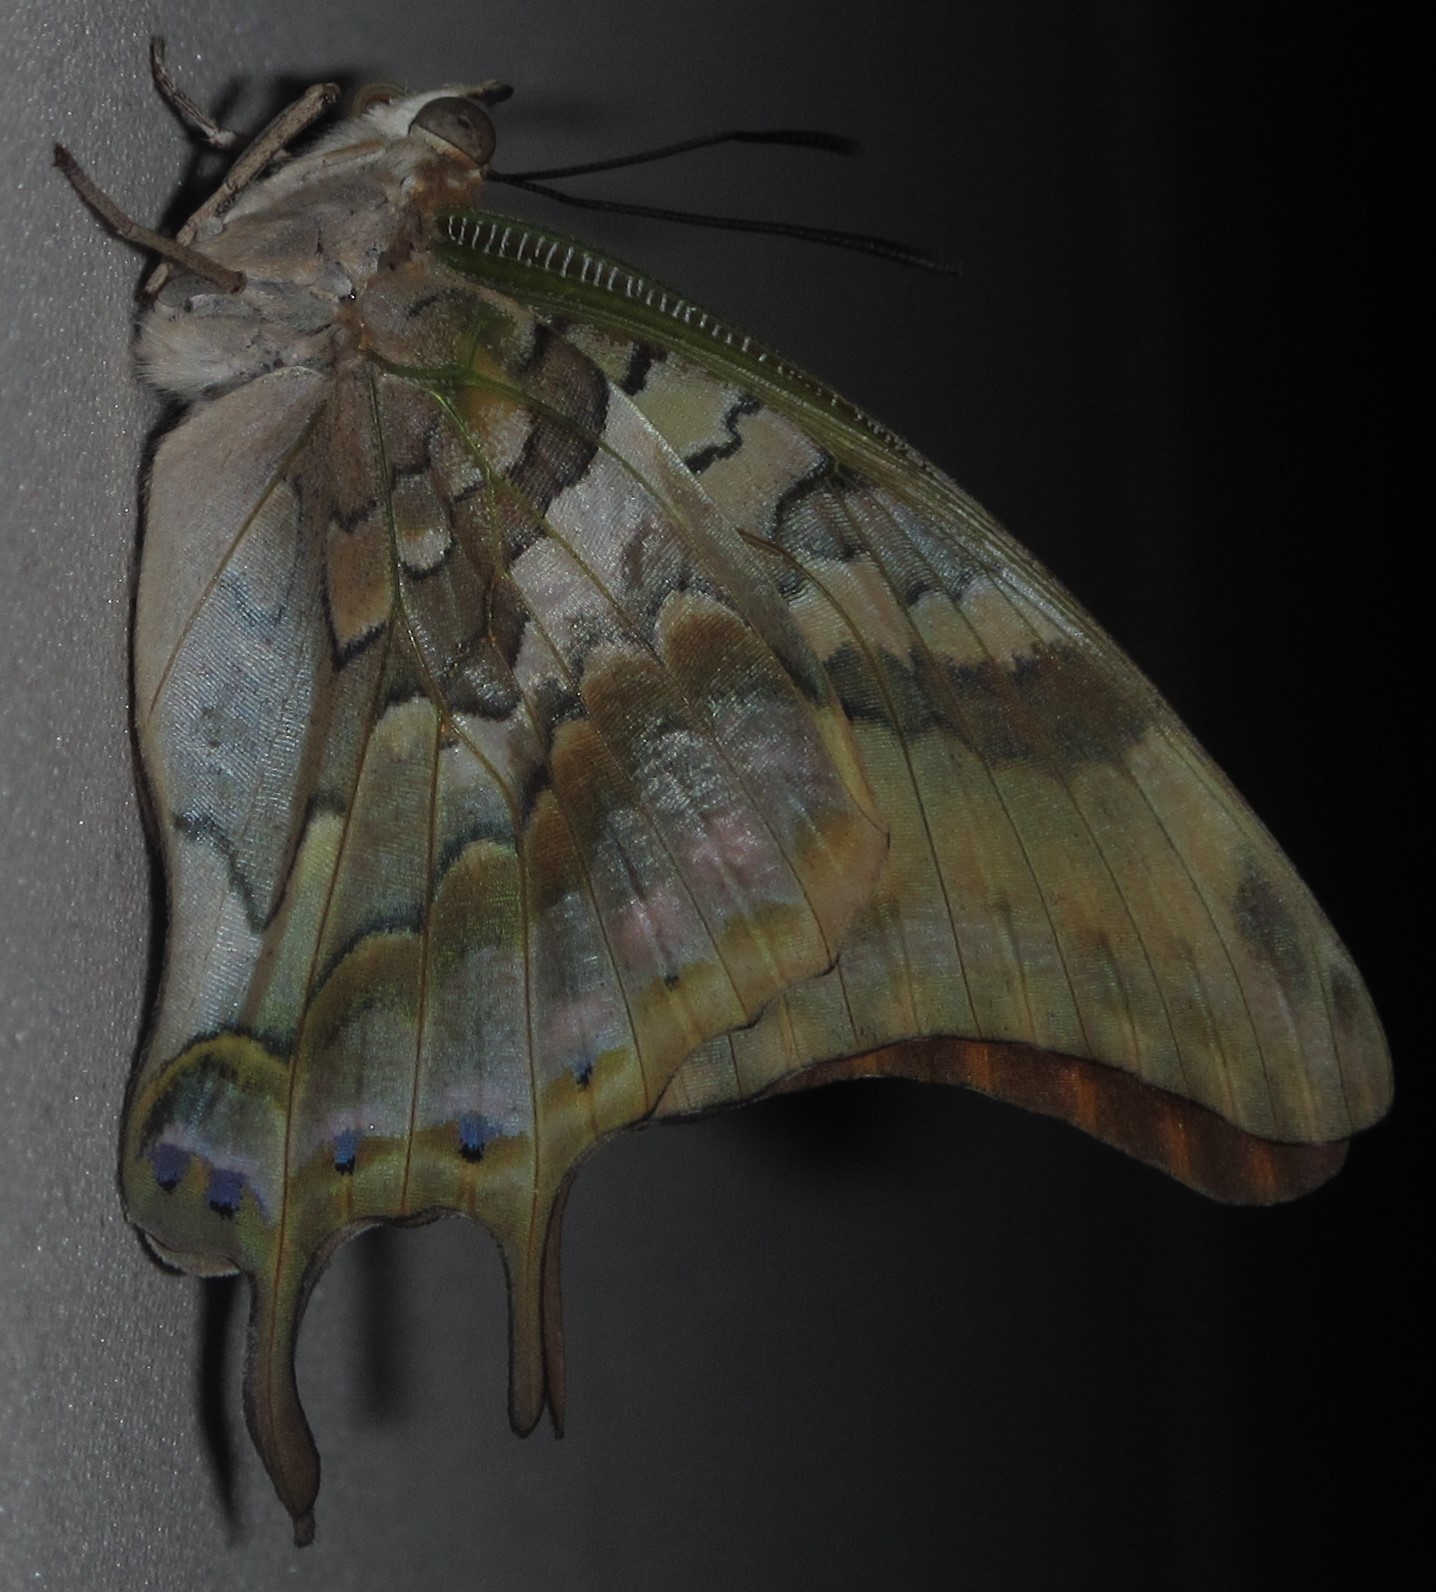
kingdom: Animalia
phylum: Arthropoda
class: Insecta
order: Lepidoptera
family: Nymphalidae
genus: Charaxes
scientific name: Charaxes candiope
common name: Green-veined charaxes
